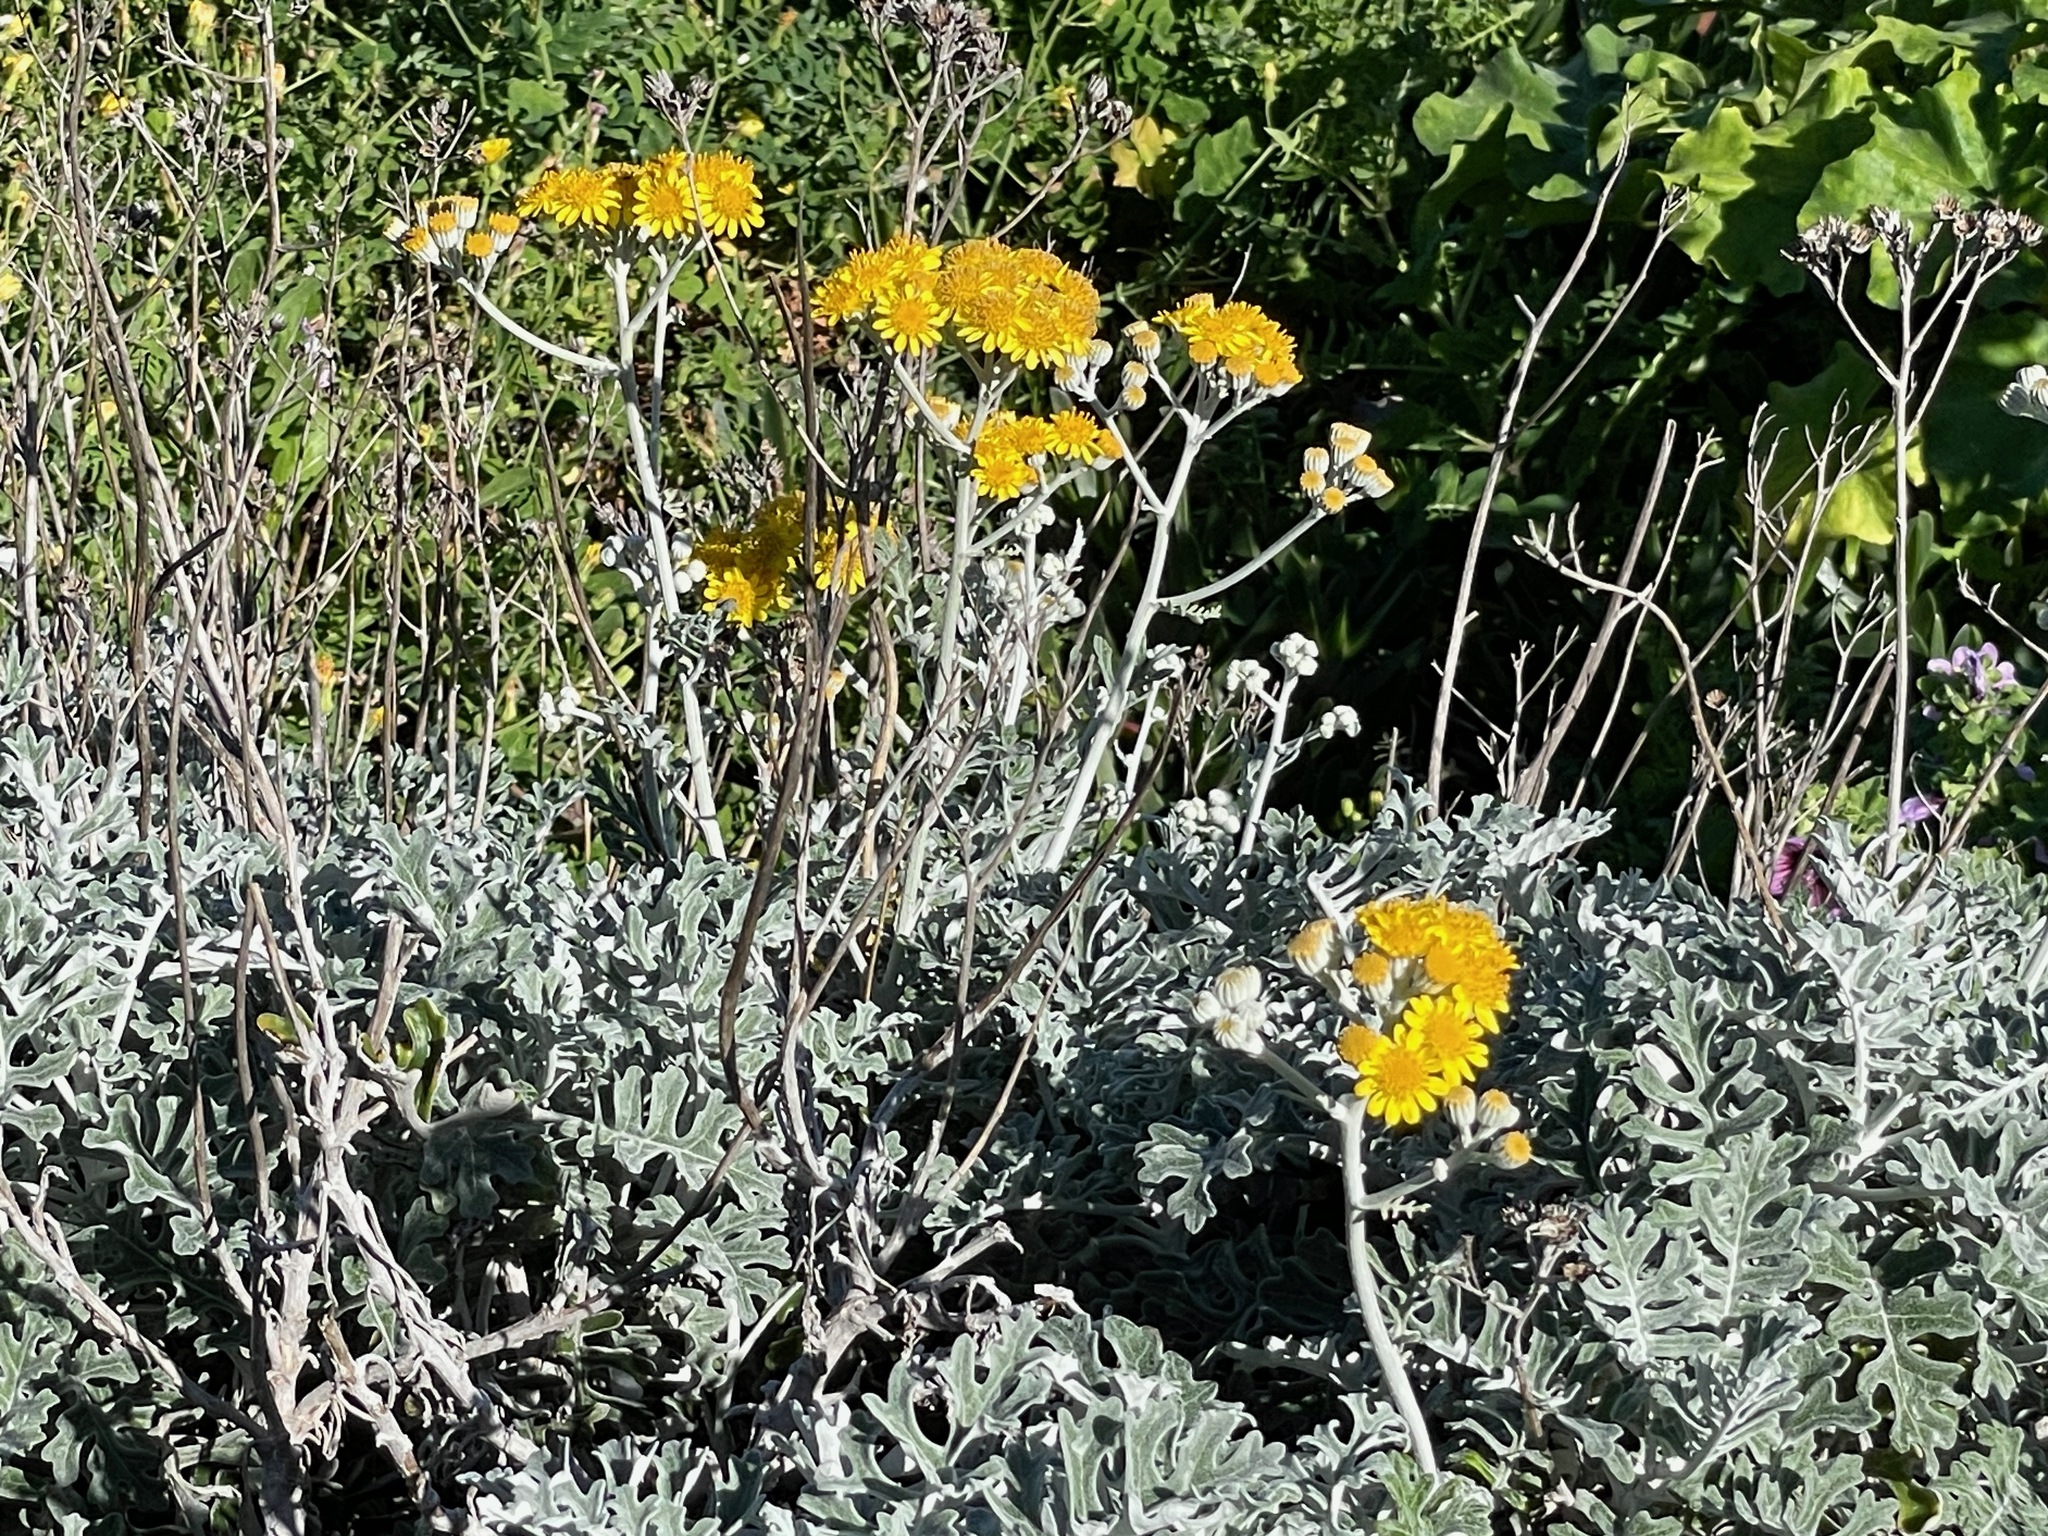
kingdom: Plantae
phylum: Tracheophyta
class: Magnoliopsida
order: Asterales
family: Asteraceae
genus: Jacobaea
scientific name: Jacobaea maritima
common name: Silver ragwort
